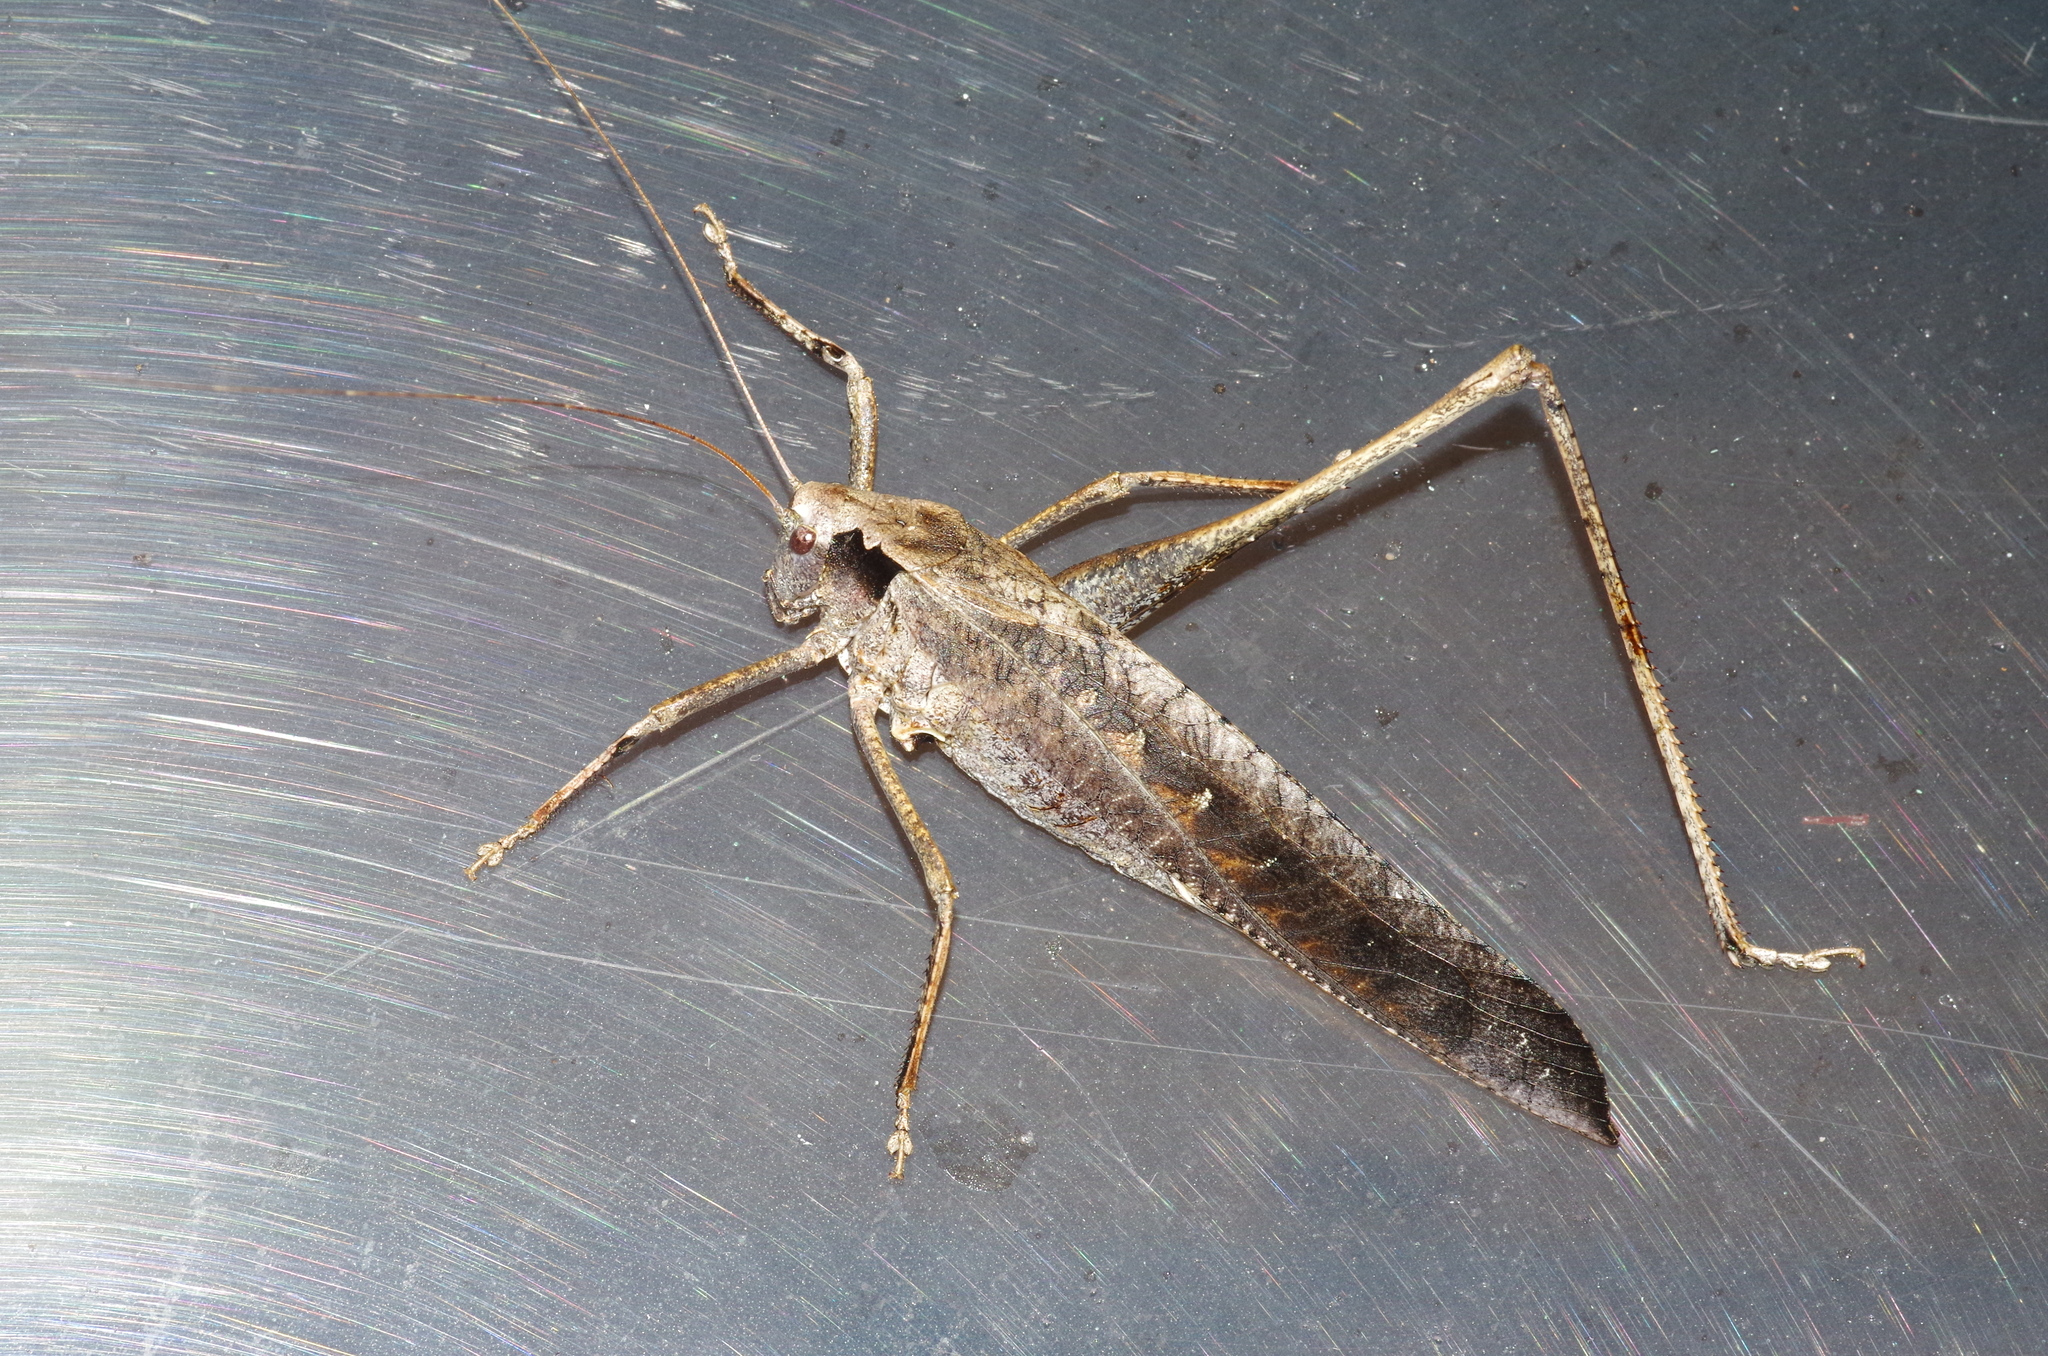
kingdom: Animalia
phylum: Arthropoda
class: Insecta
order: Orthoptera
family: Tettigoniidae
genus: Mecopoda
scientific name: Mecopoda elongata
